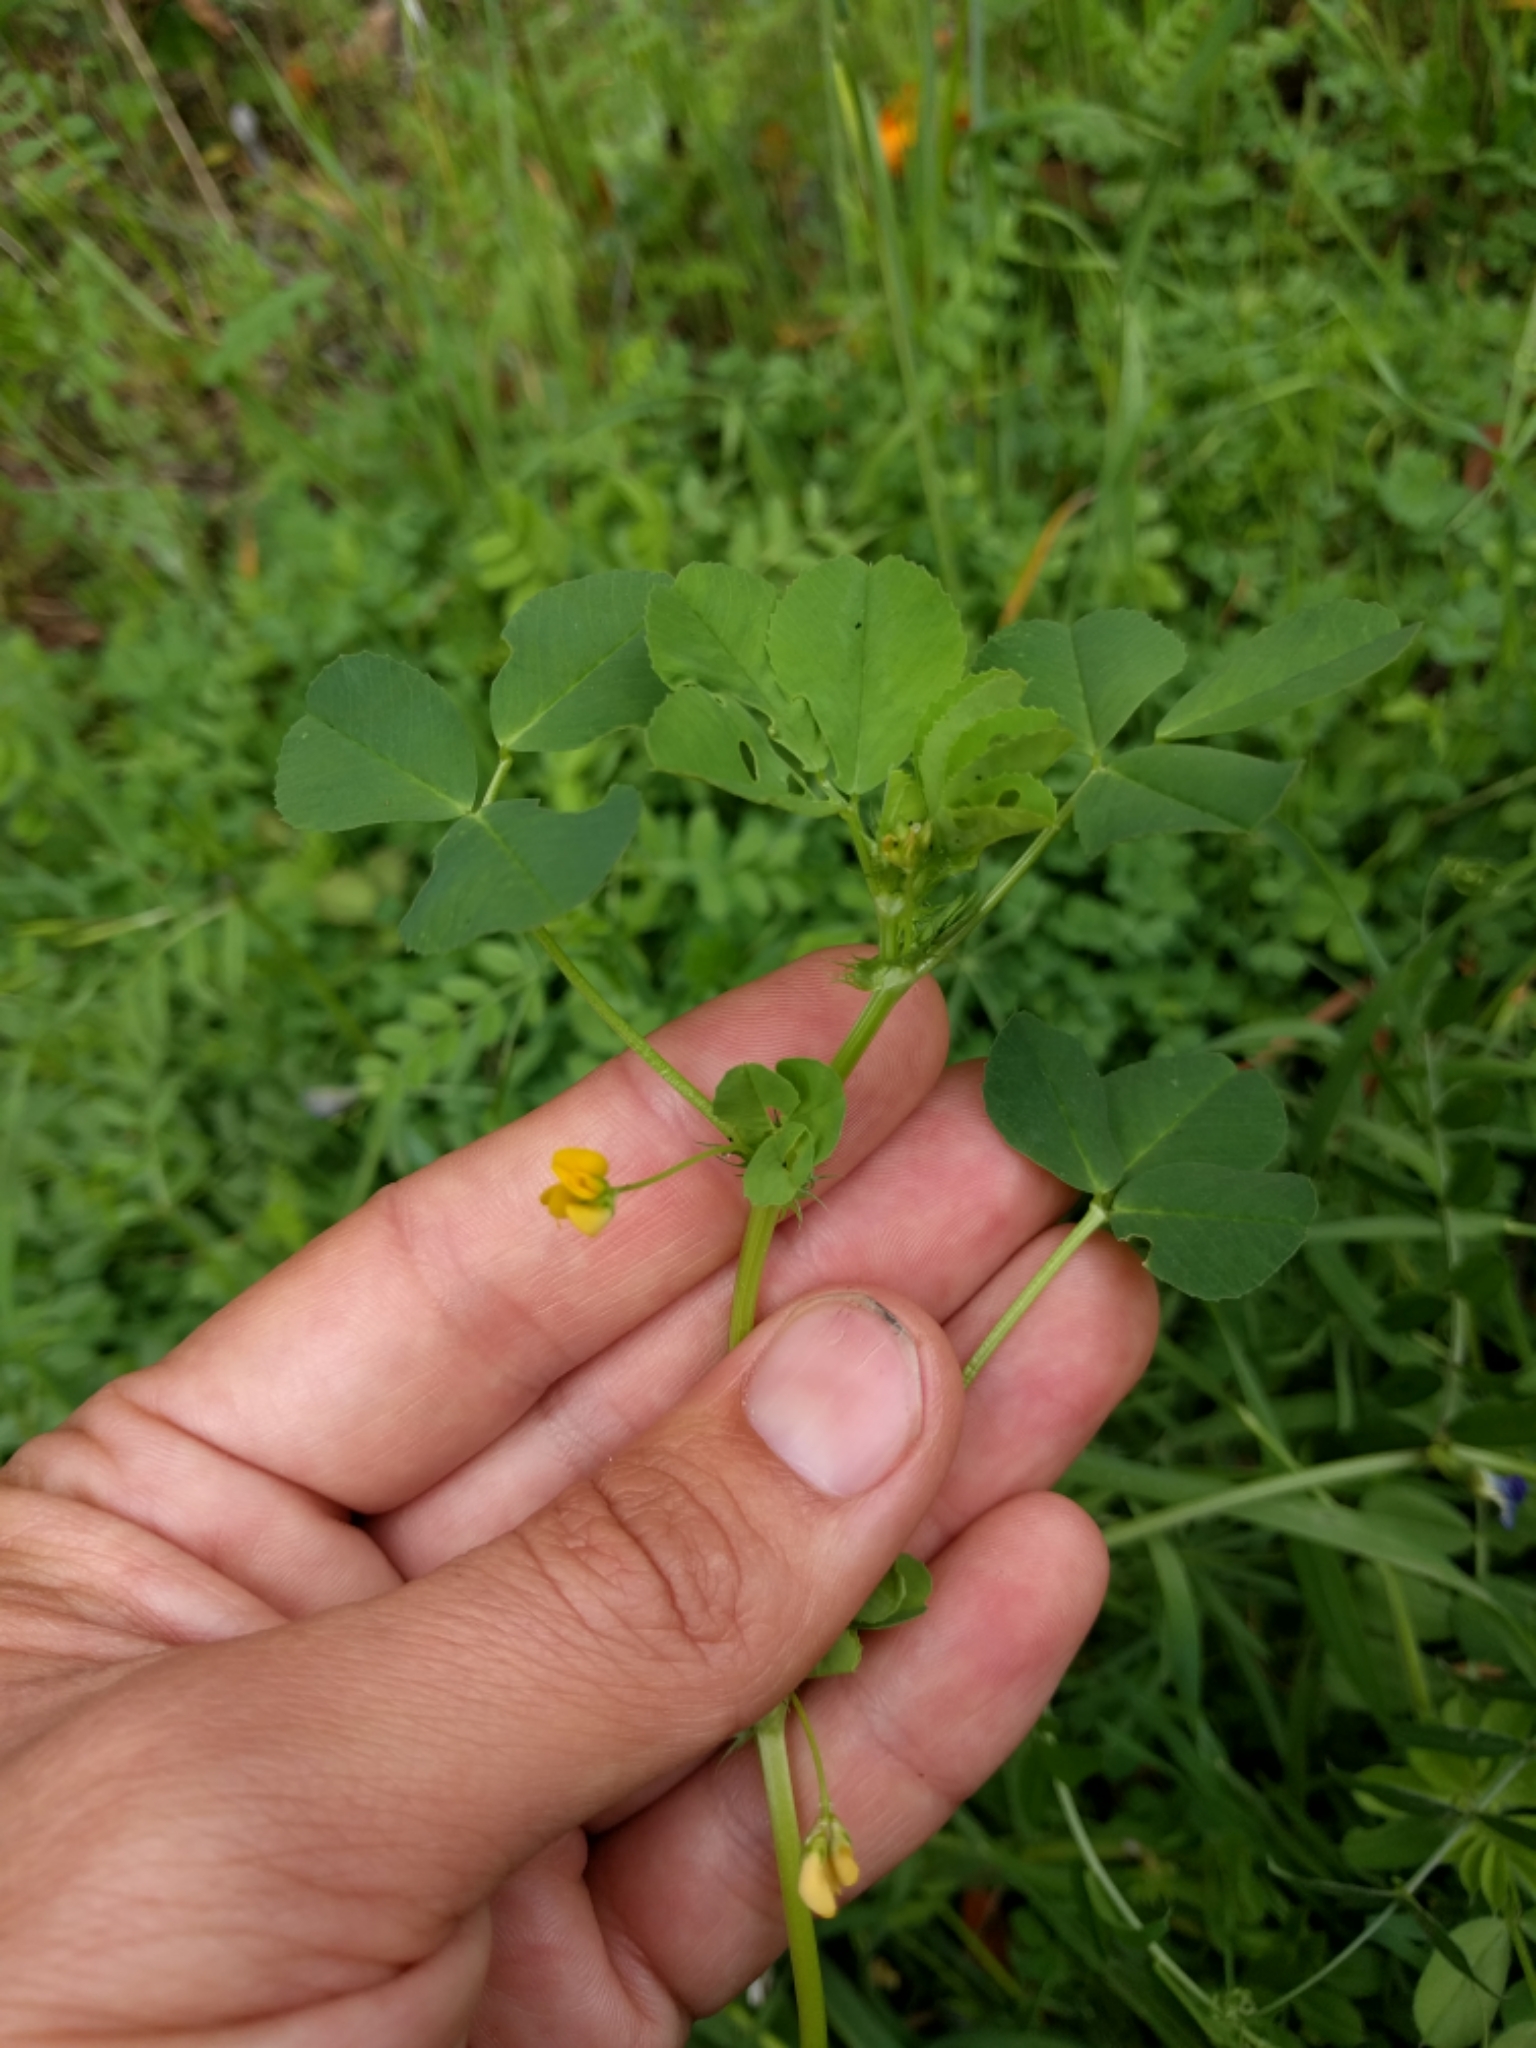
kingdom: Plantae
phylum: Tracheophyta
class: Magnoliopsida
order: Fabales
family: Fabaceae
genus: Medicago
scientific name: Medicago polymorpha
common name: Burclover
